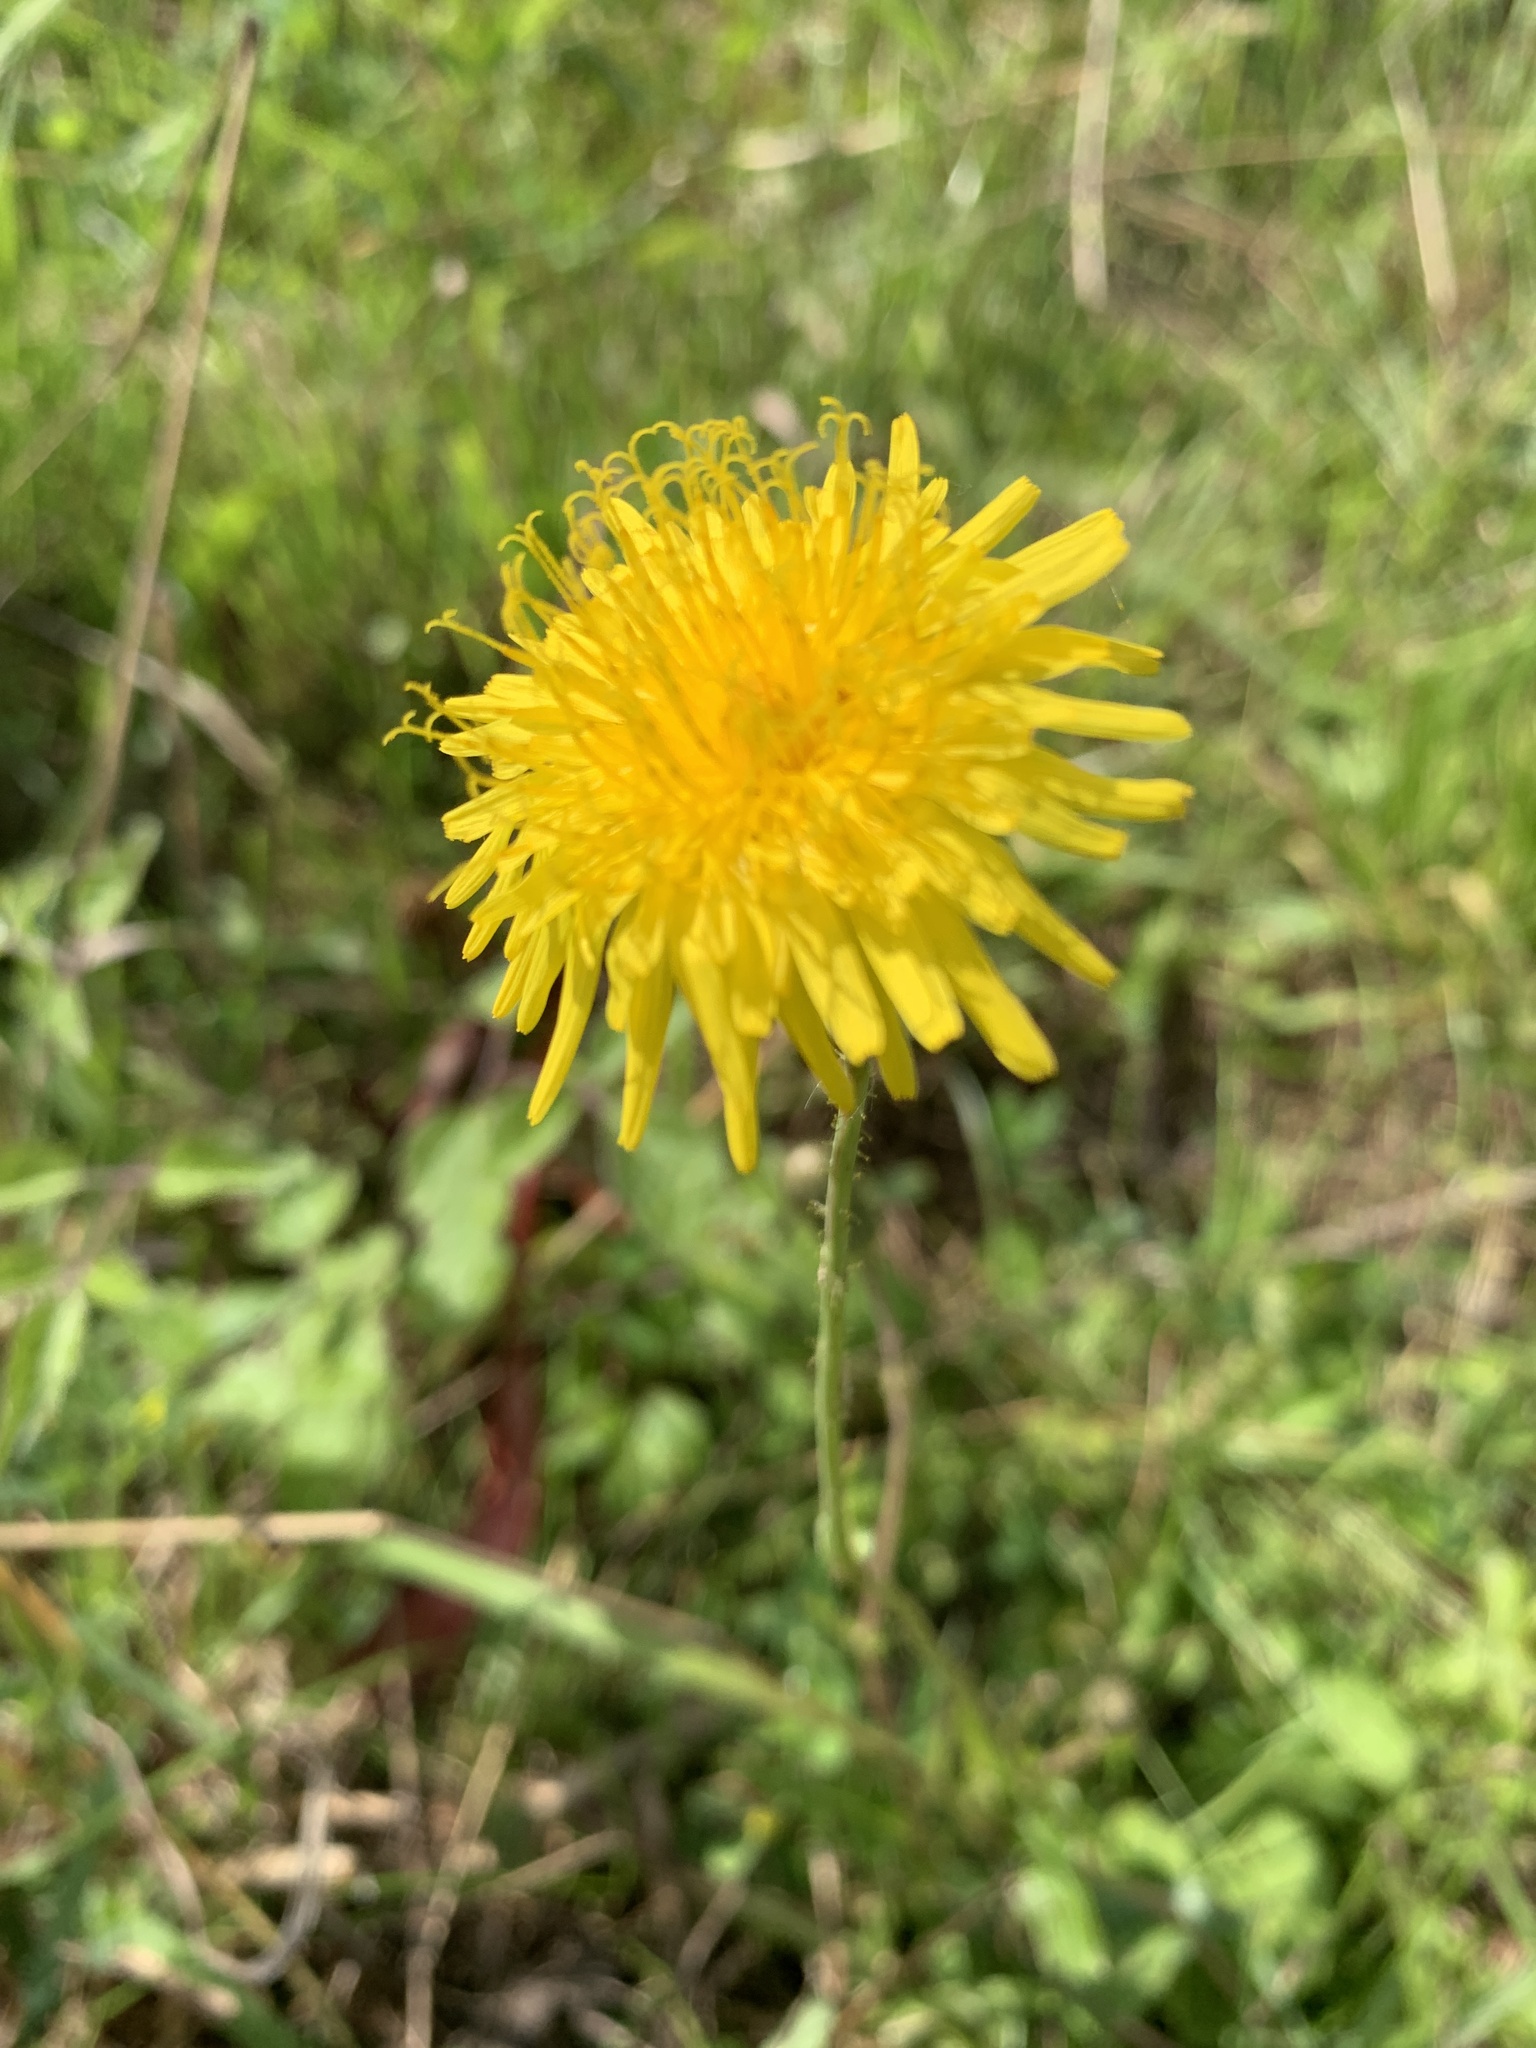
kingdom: Plantae
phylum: Tracheophyta
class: Magnoliopsida
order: Asterales
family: Asteraceae
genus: Sonchus
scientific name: Sonchus arvensis
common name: Perennial sow-thistle
